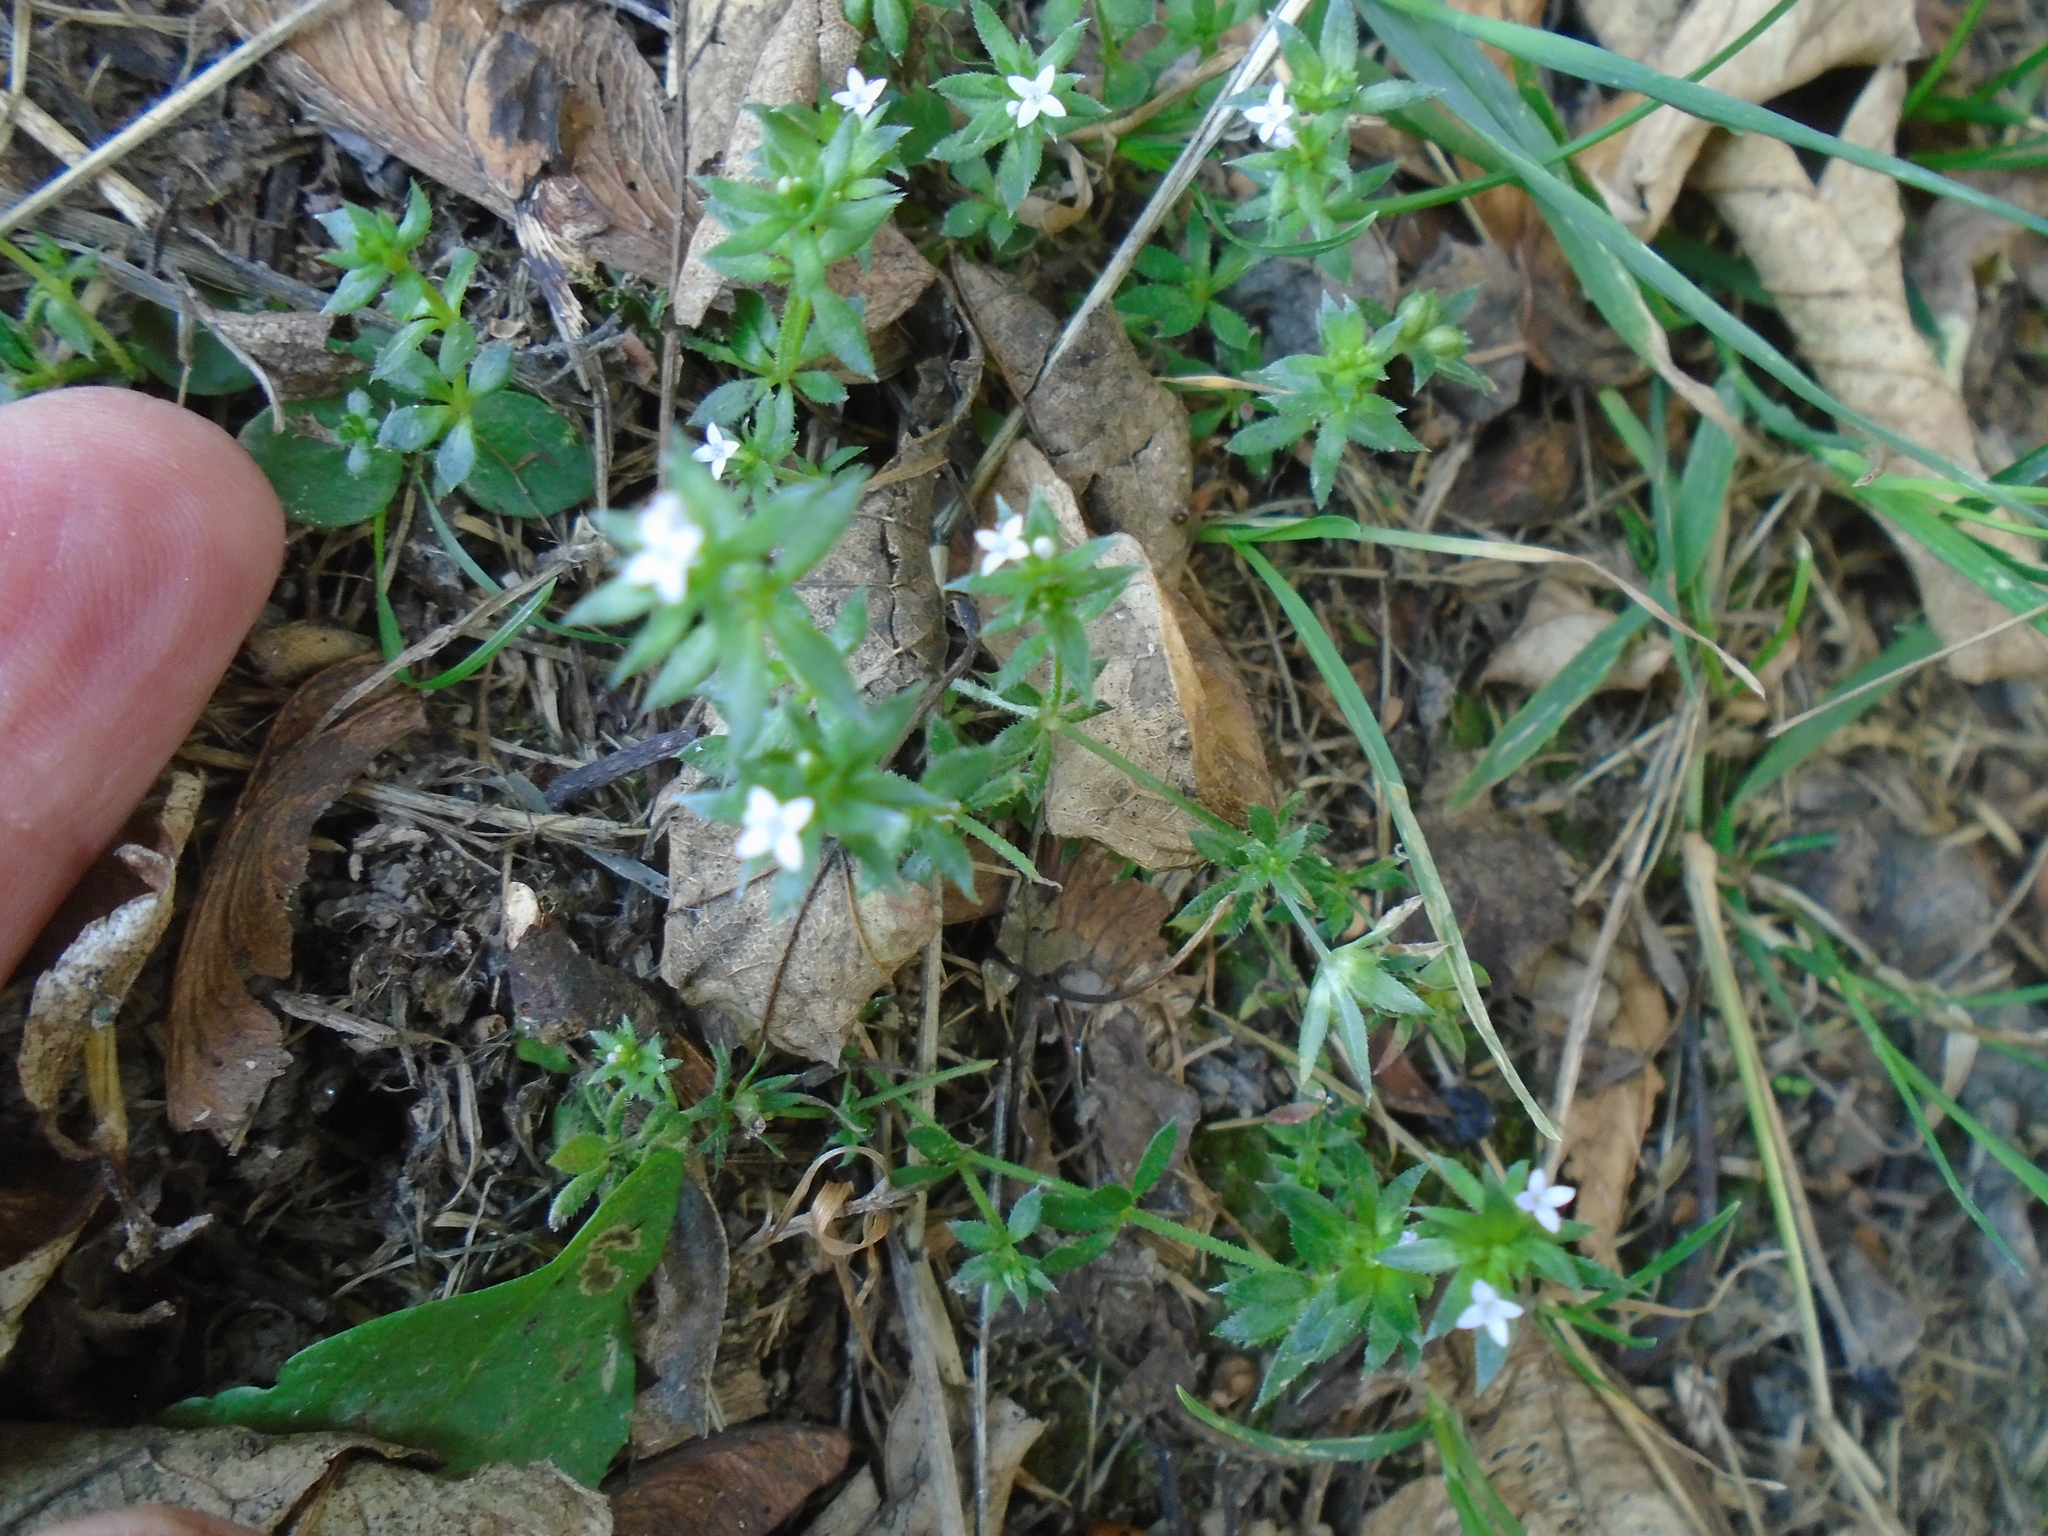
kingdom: Plantae
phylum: Tracheophyta
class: Magnoliopsida
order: Gentianales
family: Rubiaceae
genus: Sherardia
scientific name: Sherardia arvensis
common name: Field madder
